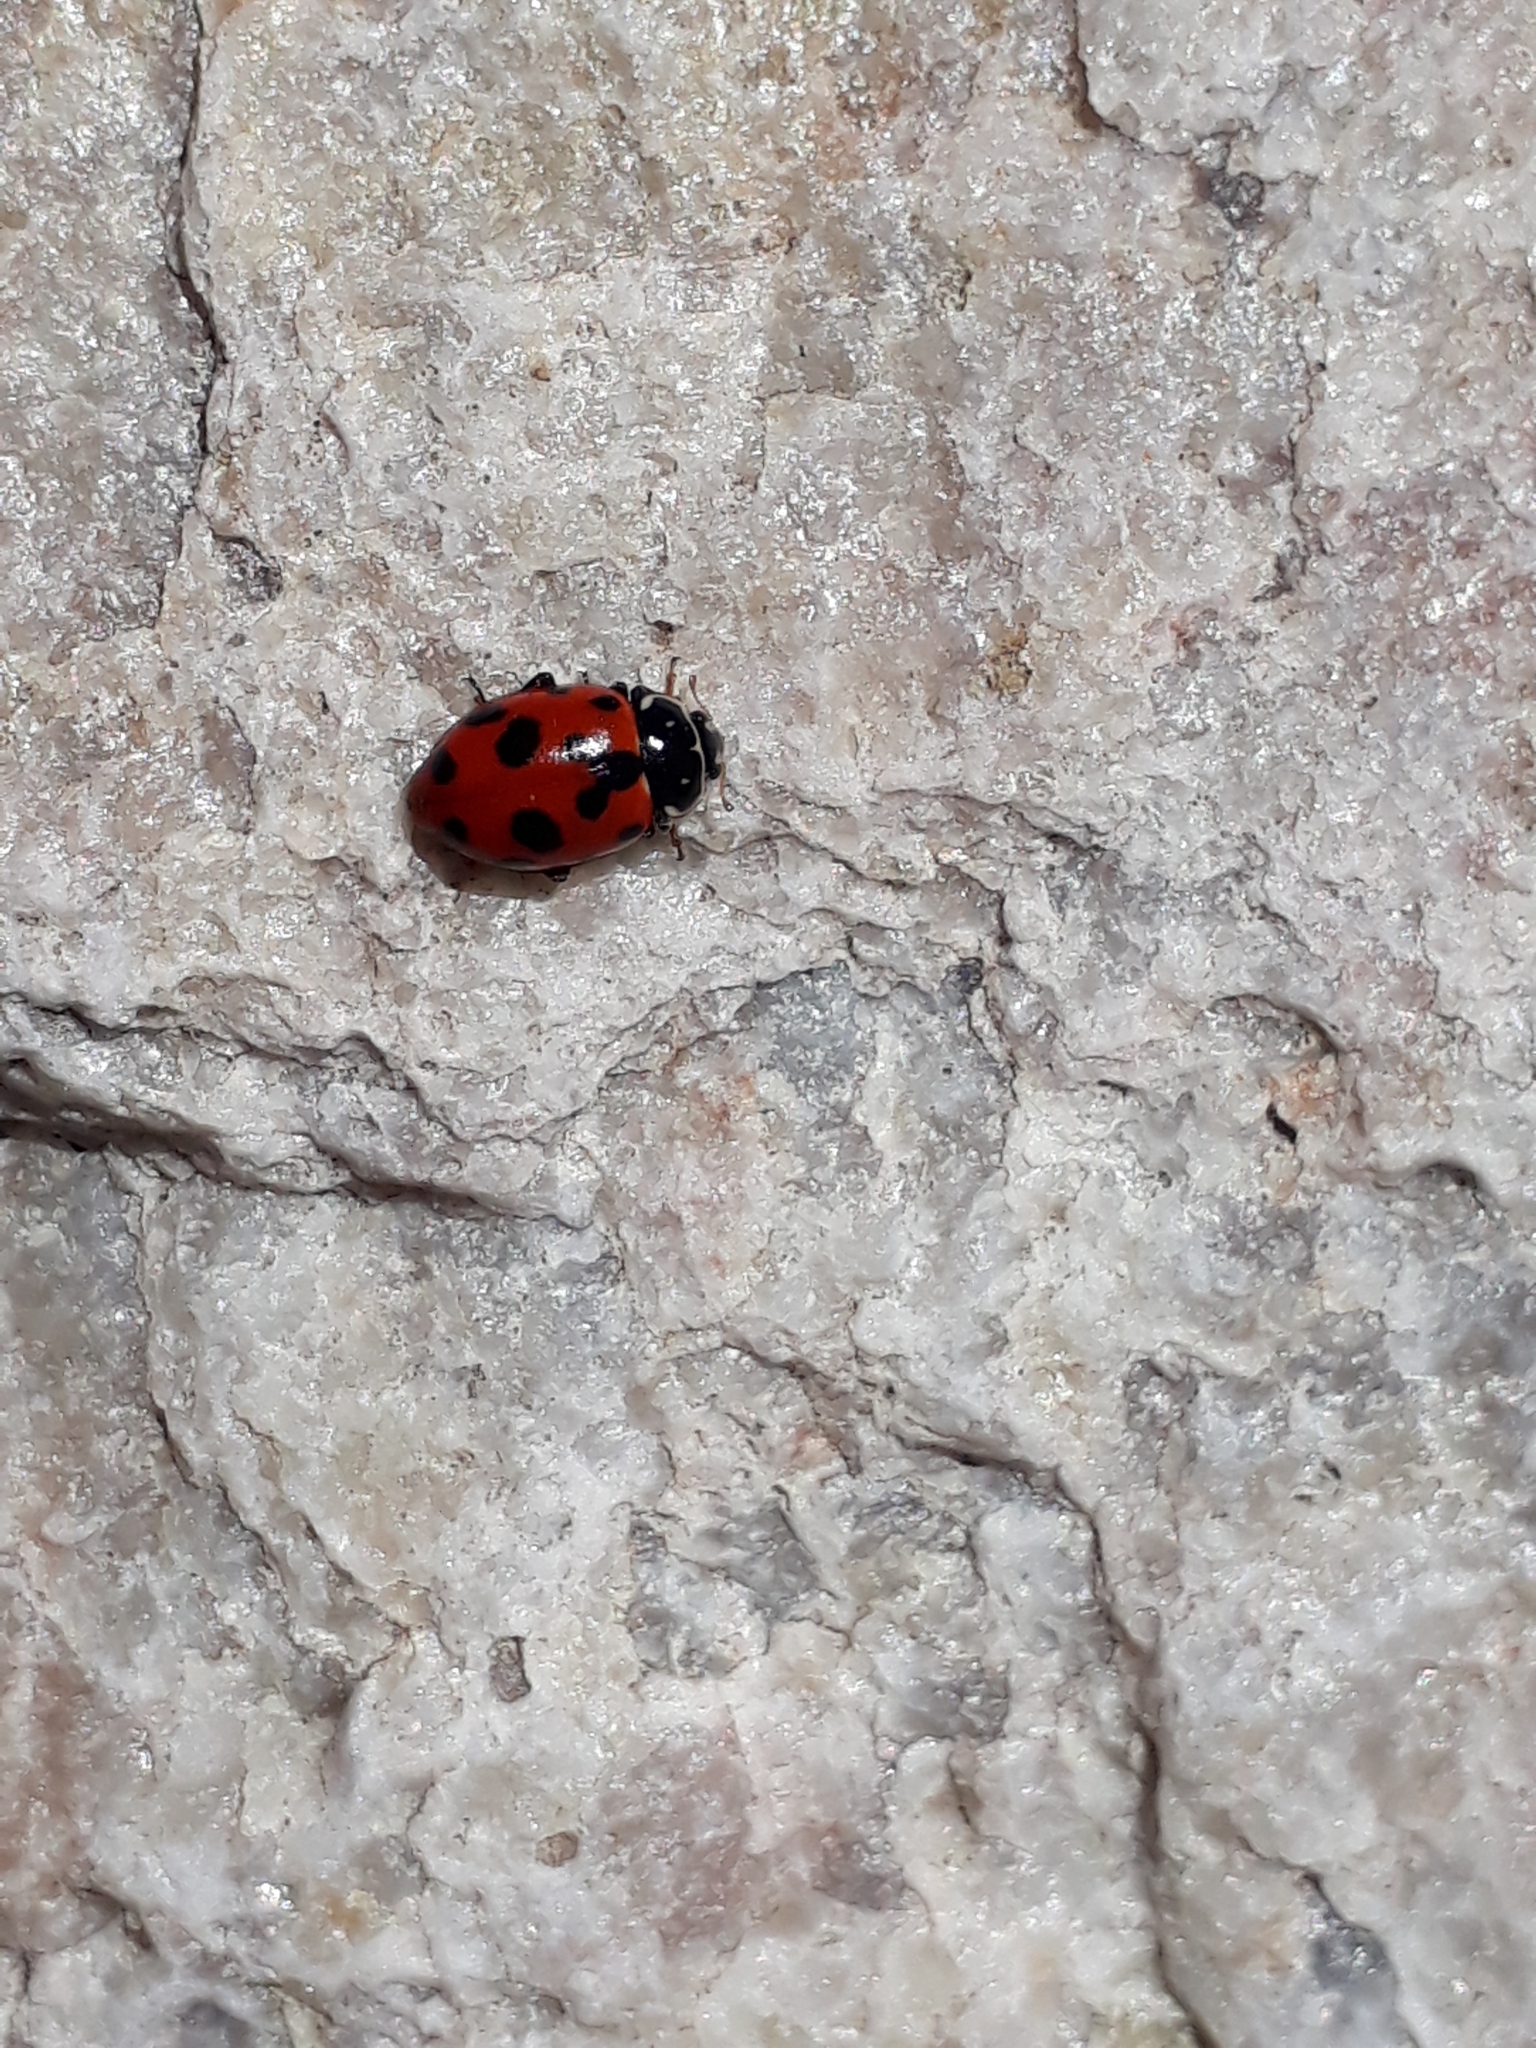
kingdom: Animalia
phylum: Arthropoda
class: Insecta
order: Coleoptera
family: Coccinellidae
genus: Hippodamia
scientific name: Hippodamia variegata
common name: Ladybird beetle
